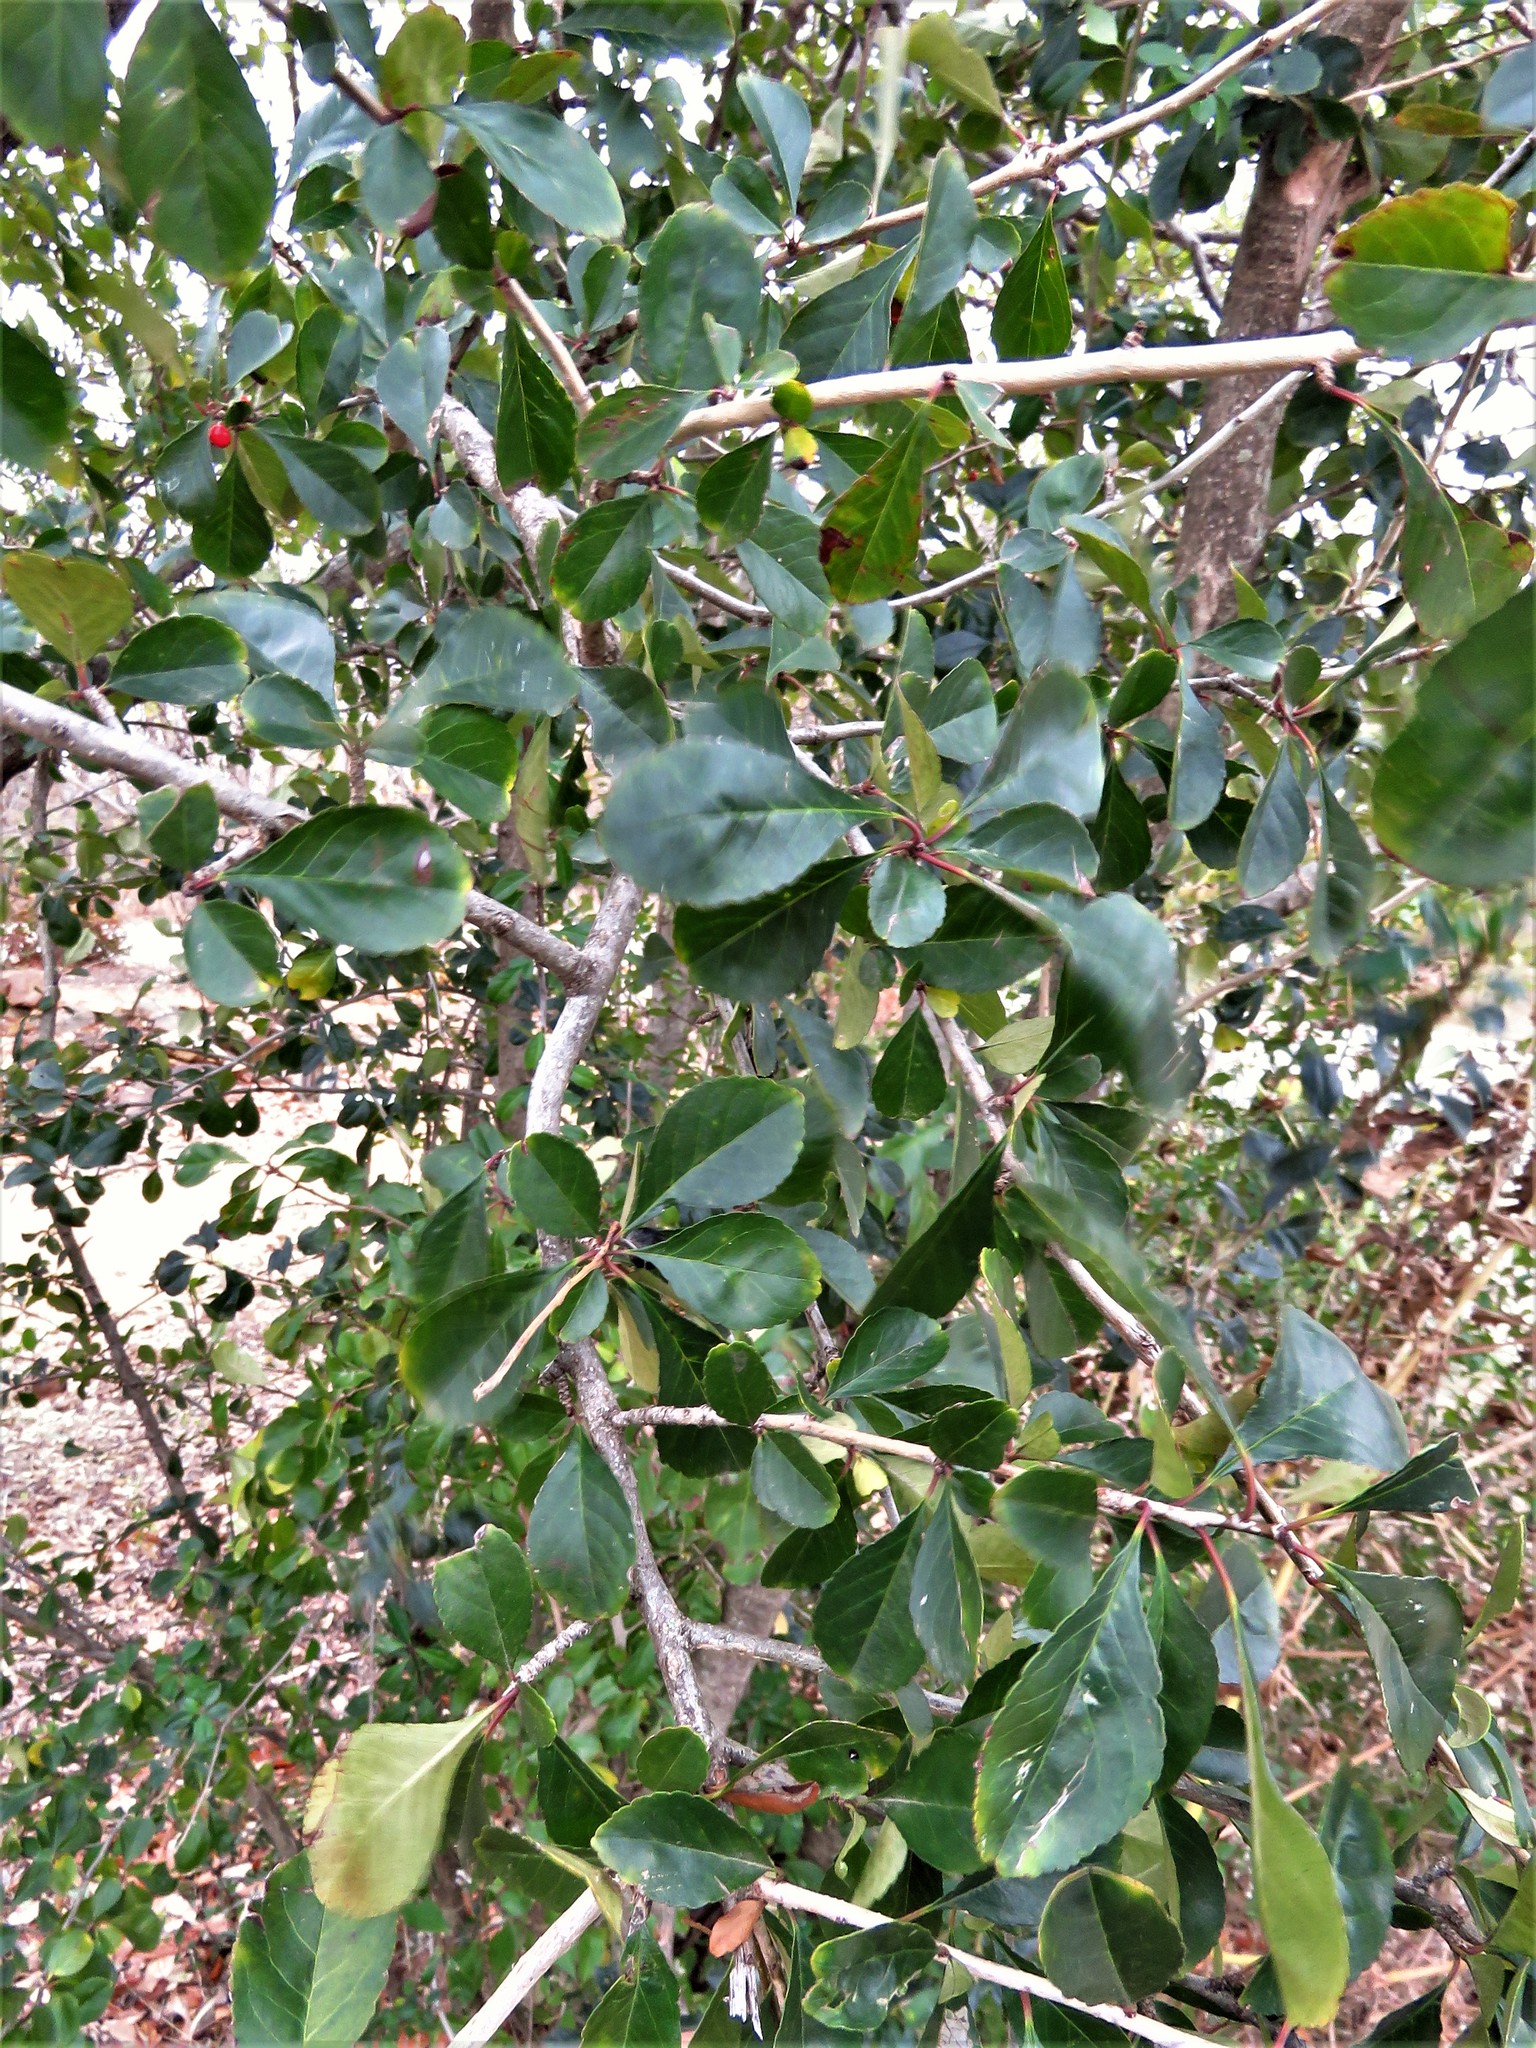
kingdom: Plantae
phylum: Tracheophyta
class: Magnoliopsida
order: Aquifoliales
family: Aquifoliaceae
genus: Ilex
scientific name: Ilex decidua
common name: Possum-haw
